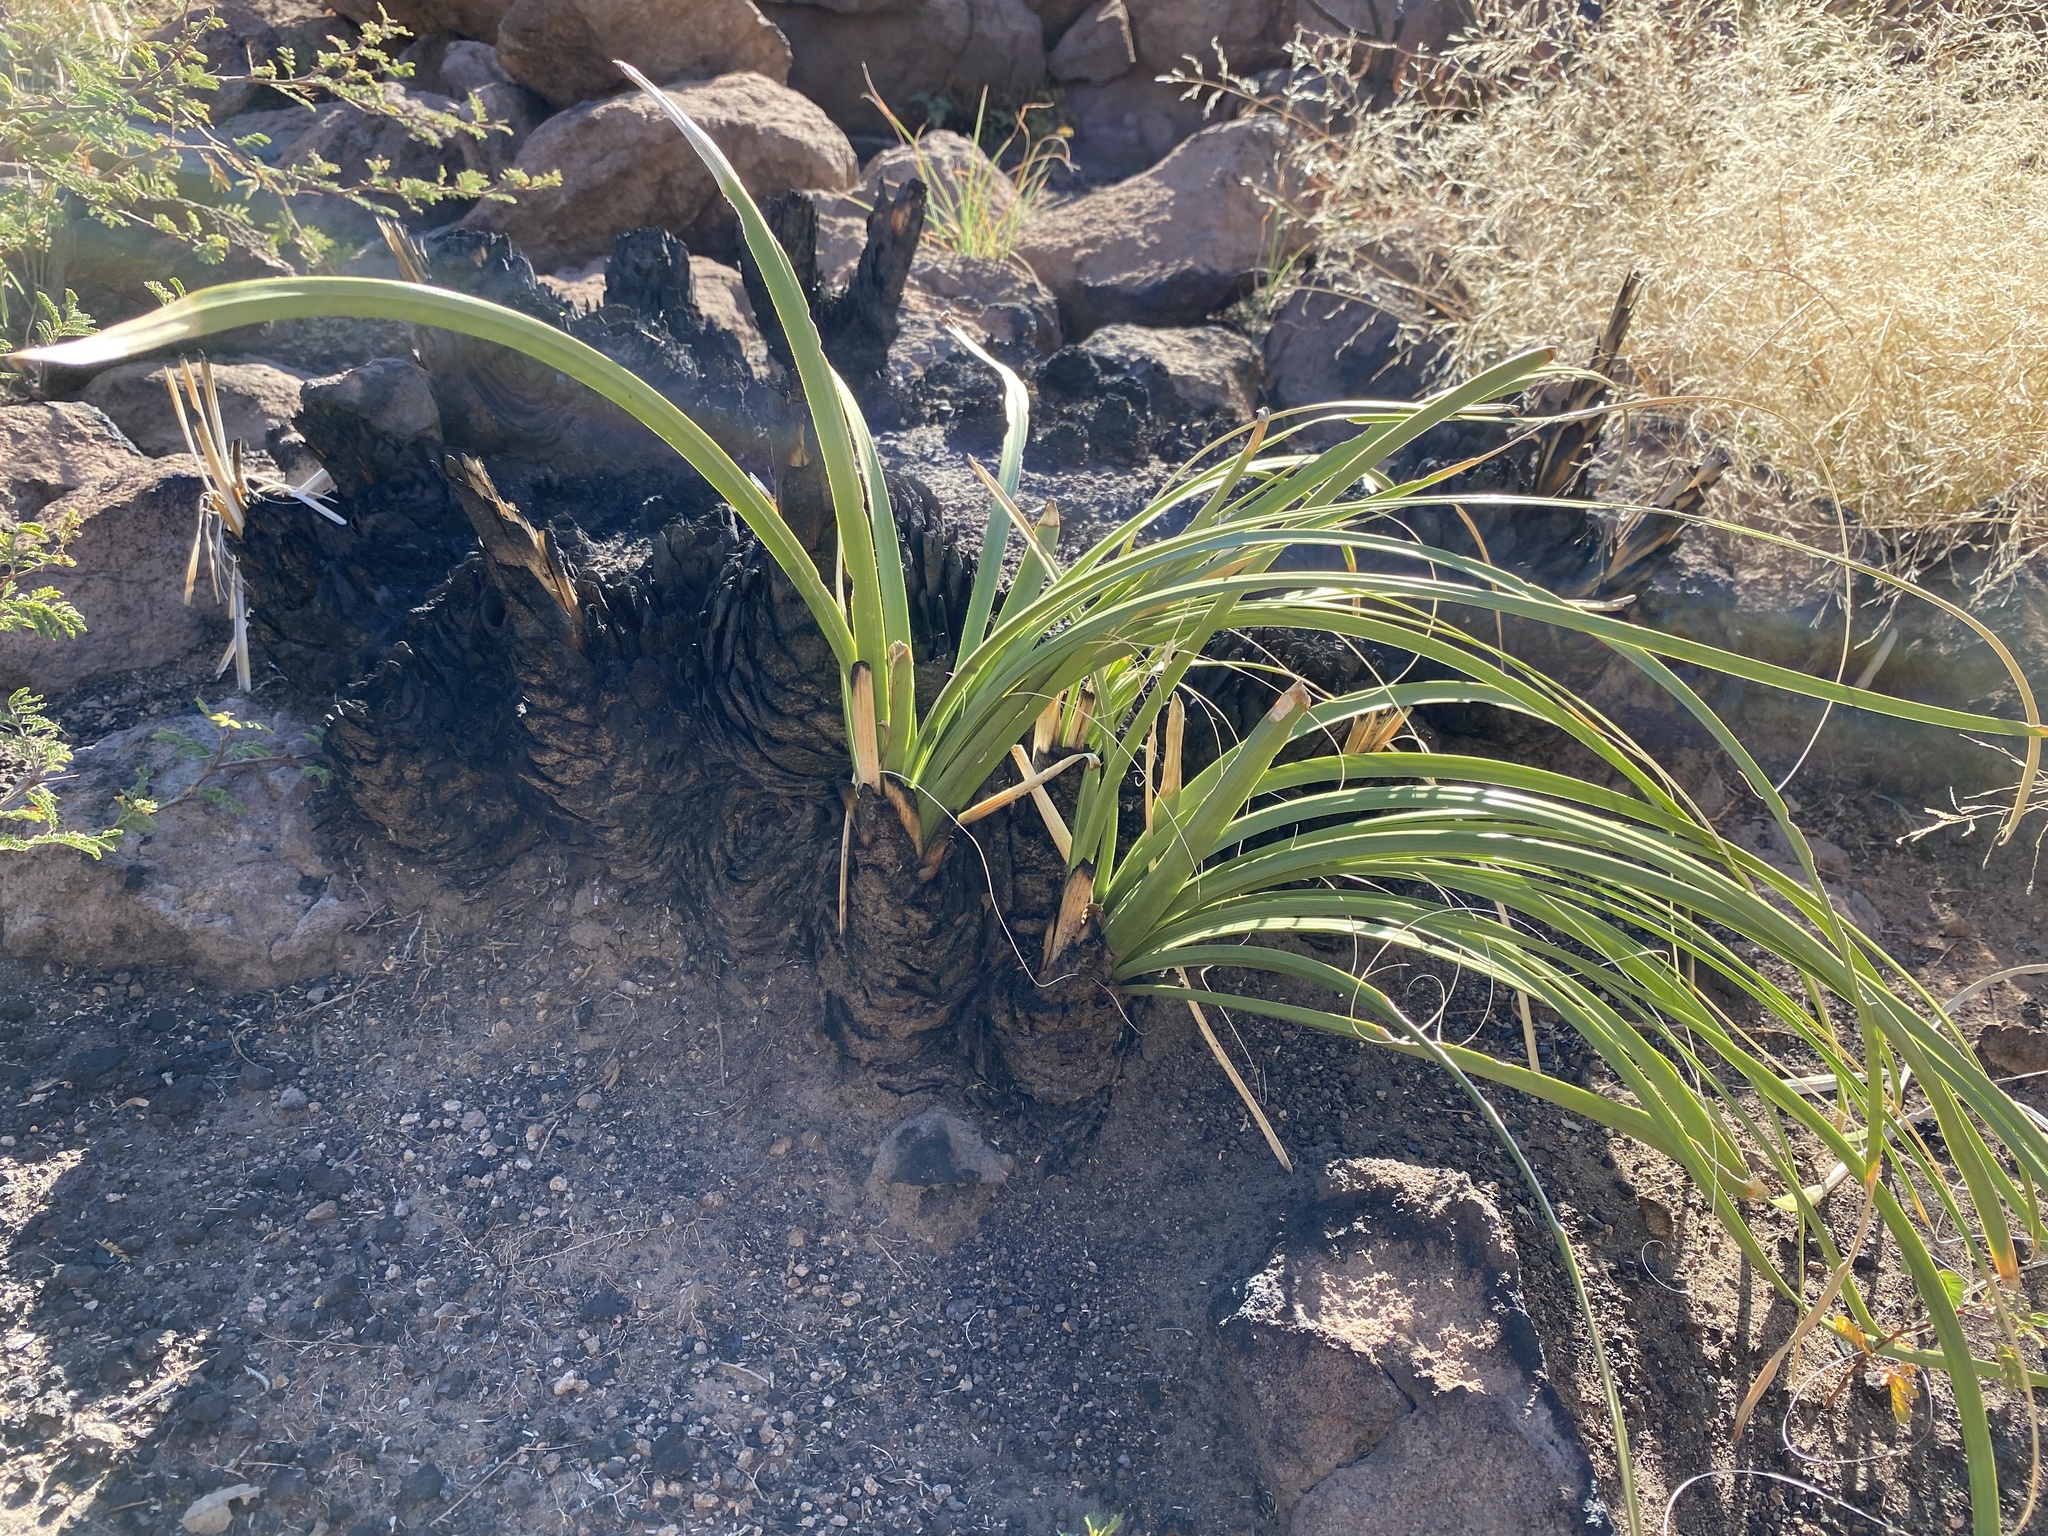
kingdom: Plantae
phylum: Tracheophyta
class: Liliopsida
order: Asparagales
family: Asparagaceae
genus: Nolina
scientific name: Nolina microcarpa
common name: Bear-grass
